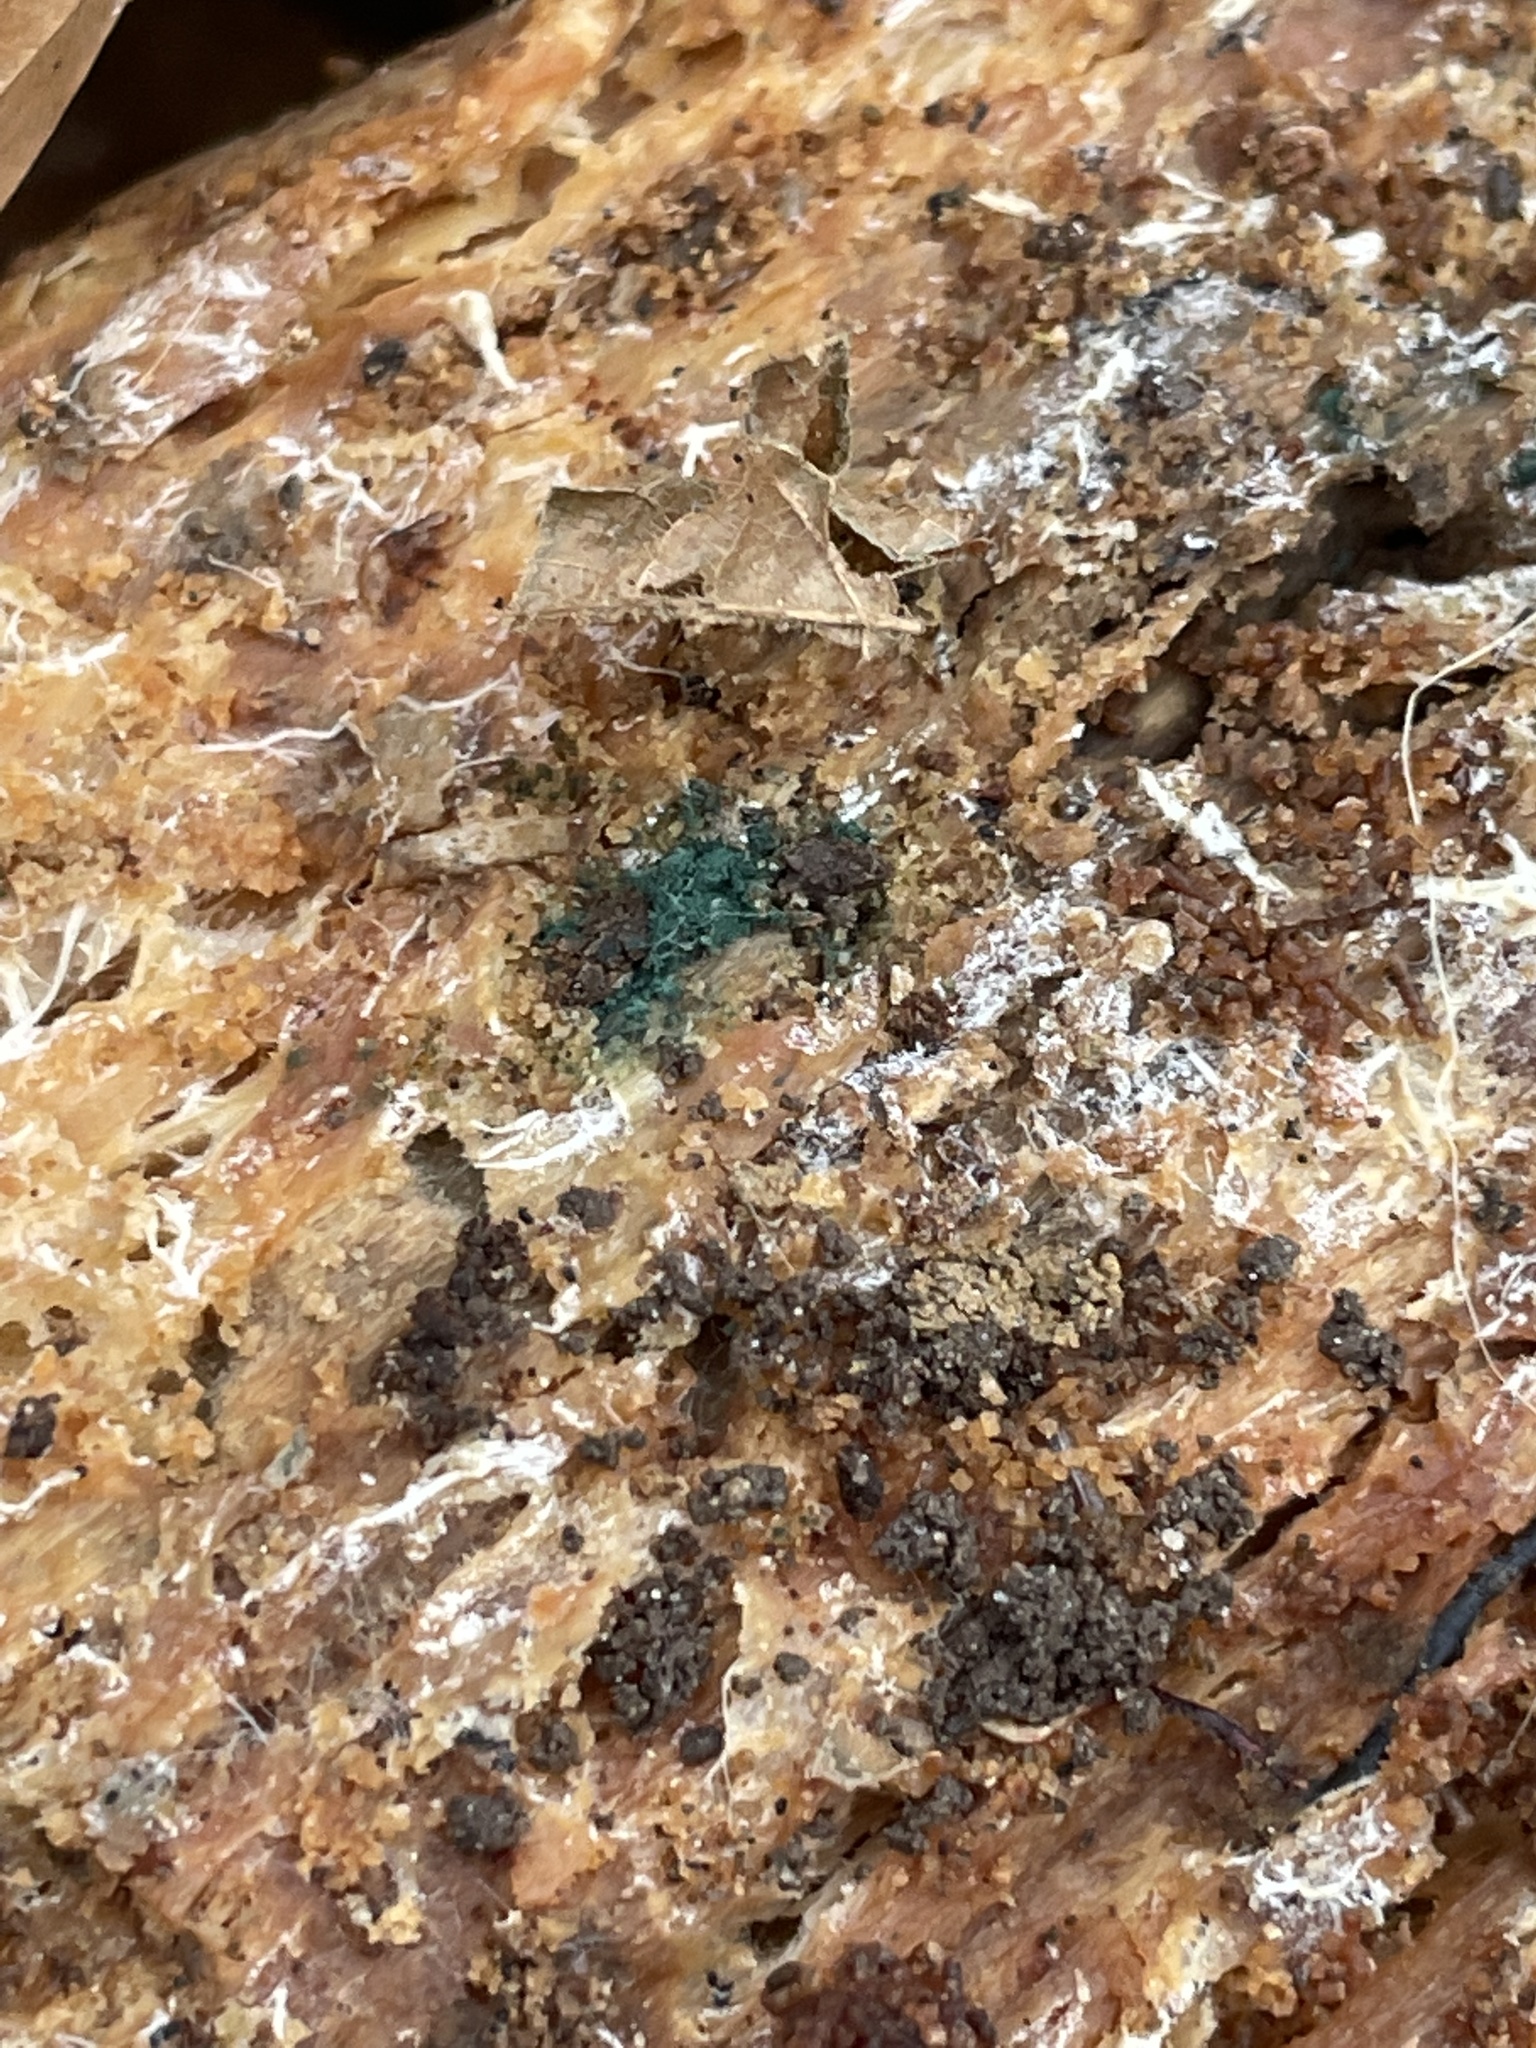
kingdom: Fungi
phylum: Ascomycota
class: Sordariomycetes
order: Hypocreales
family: Hypocreaceae
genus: Trichoderma
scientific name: Trichoderma viride
